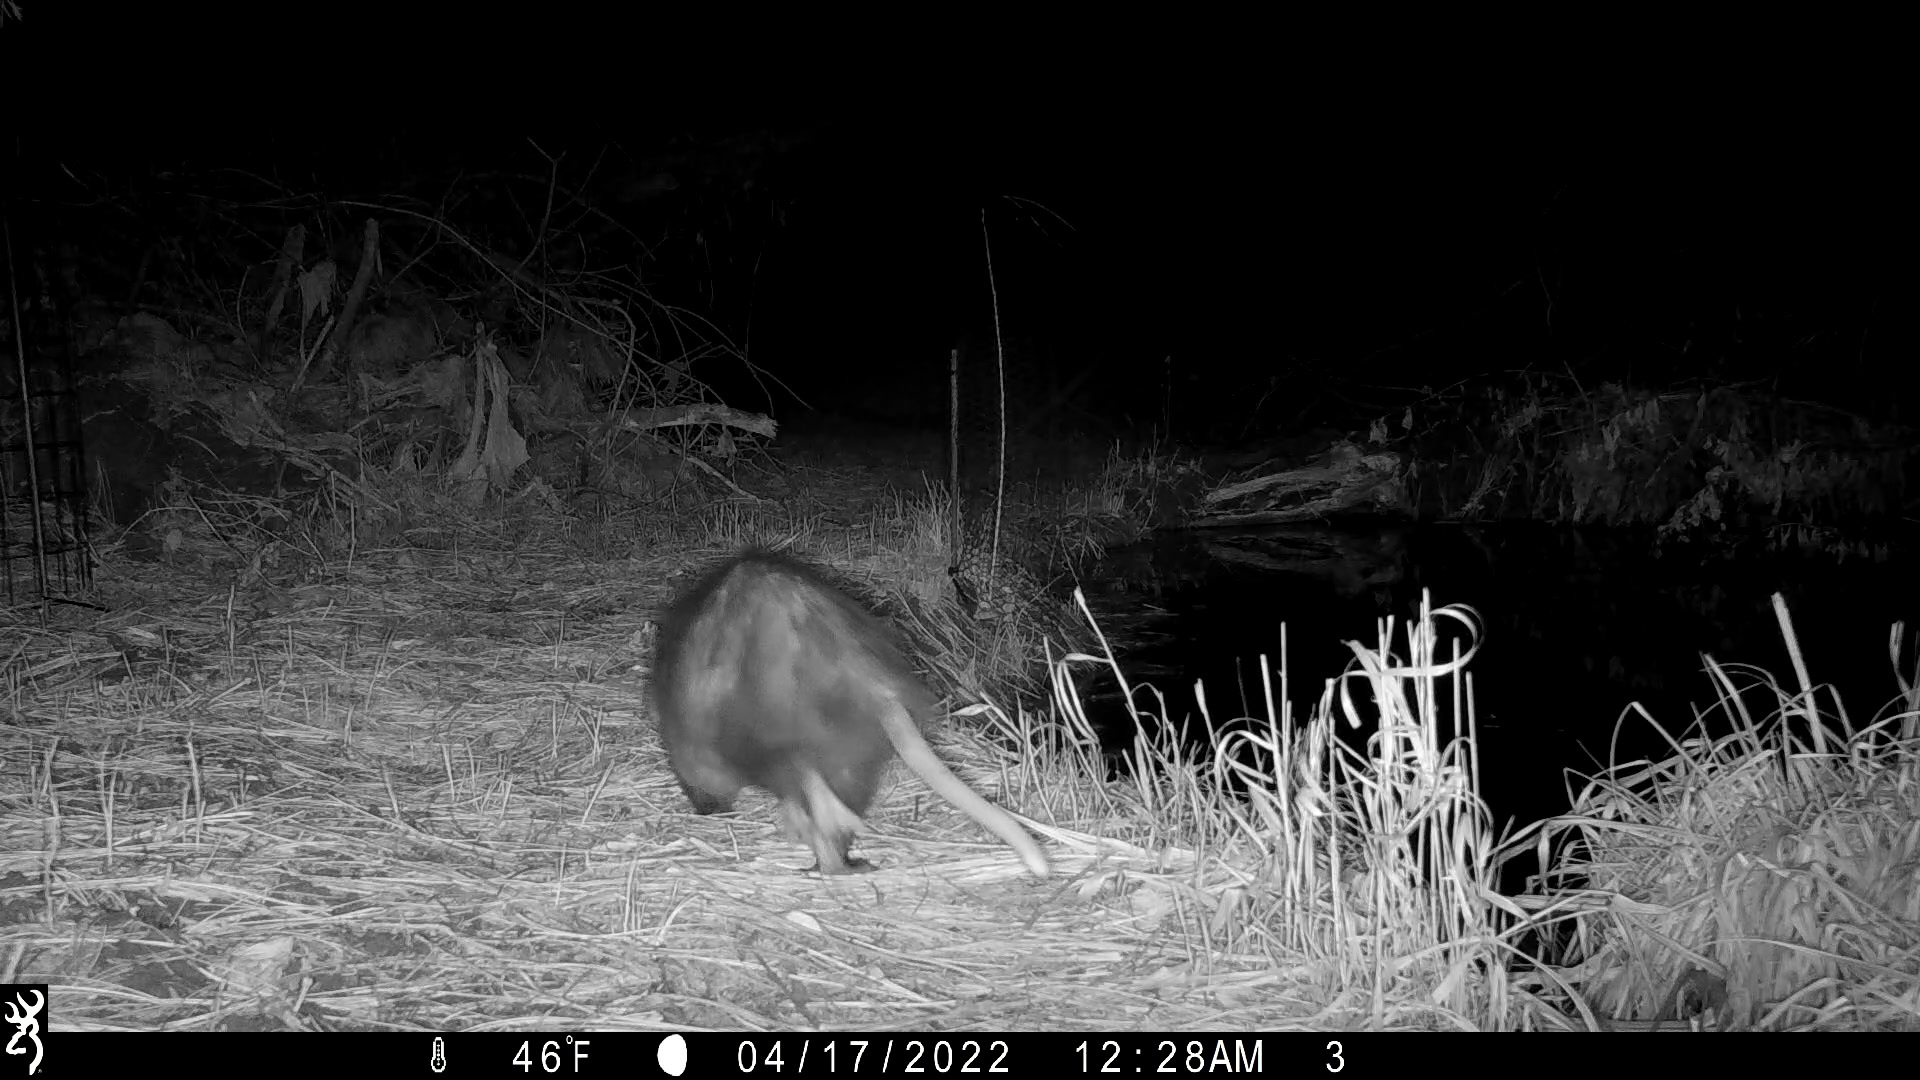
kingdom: Animalia
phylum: Chordata
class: Mammalia
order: Didelphimorphia
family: Didelphidae
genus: Didelphis
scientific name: Didelphis virginiana
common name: Virginia opossum
